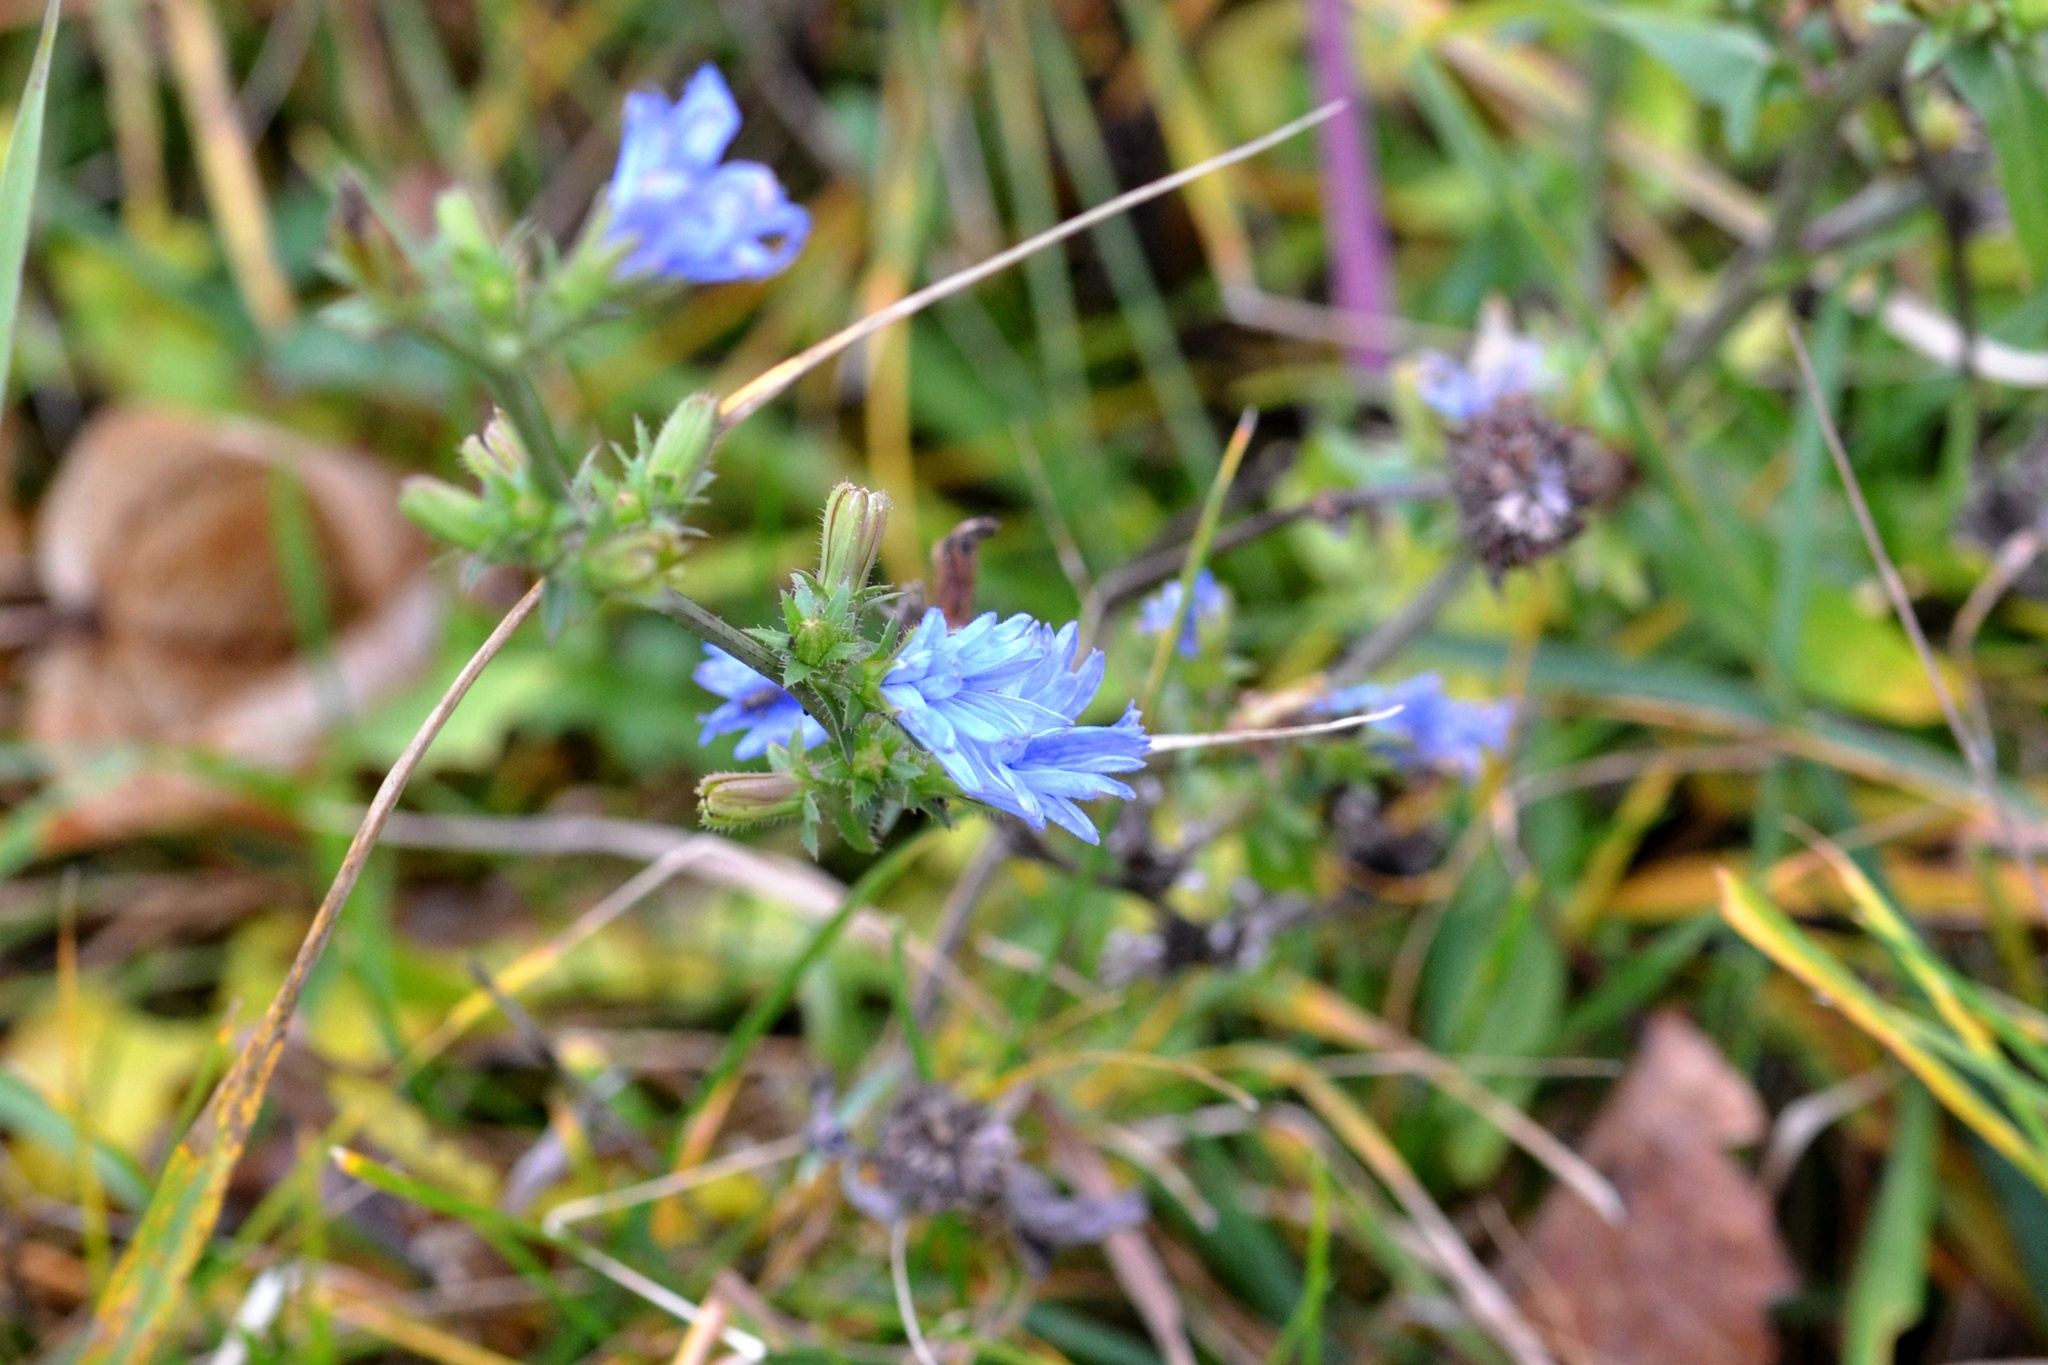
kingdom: Plantae
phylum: Tracheophyta
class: Magnoliopsida
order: Asterales
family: Asteraceae
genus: Cichorium
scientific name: Cichorium intybus
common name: Chicory
